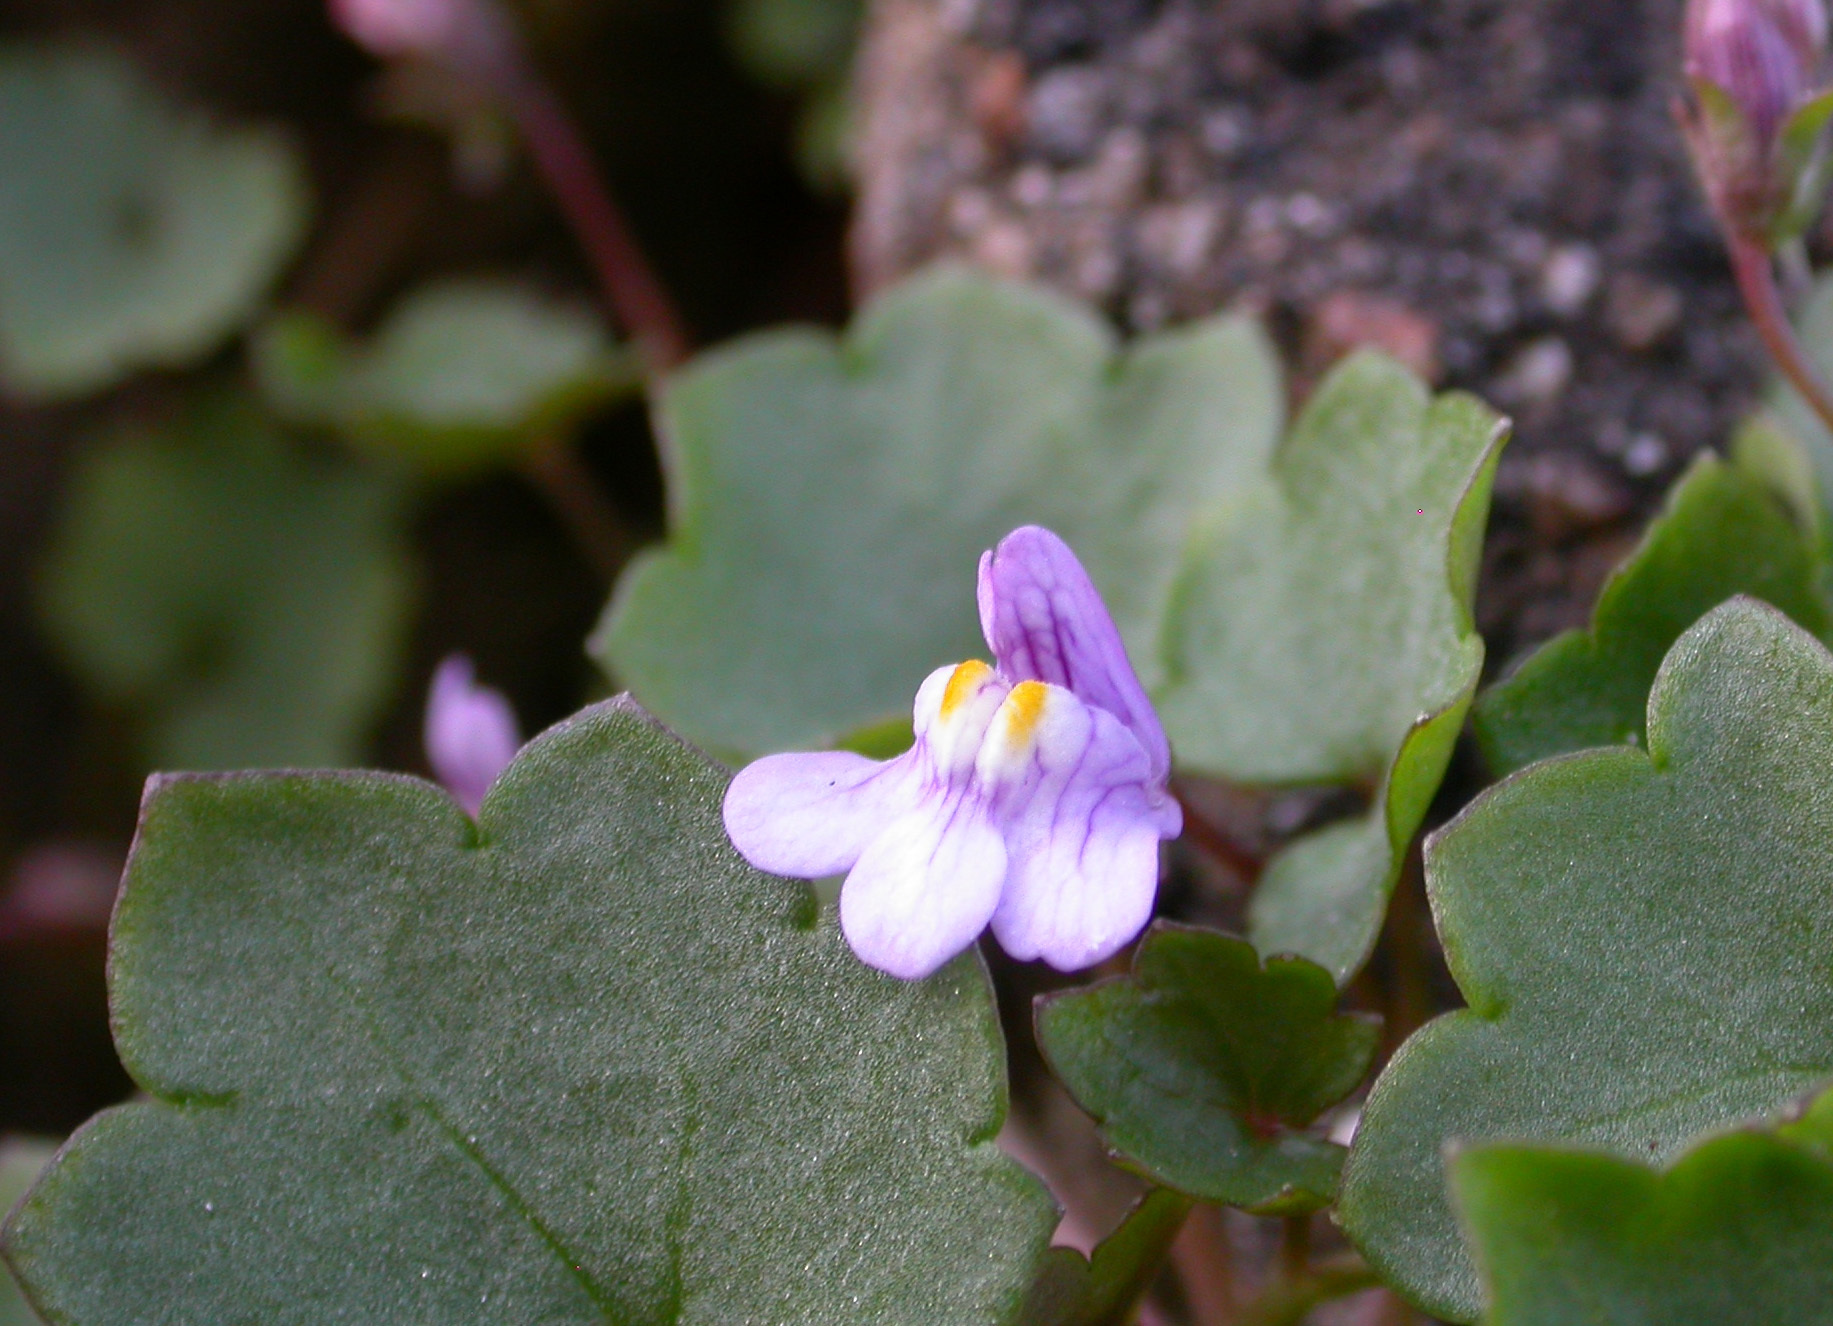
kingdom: Plantae
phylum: Tracheophyta
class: Magnoliopsida
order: Lamiales
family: Plantaginaceae
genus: Cymbalaria
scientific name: Cymbalaria muralis
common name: Ivy-leaved toadflax
